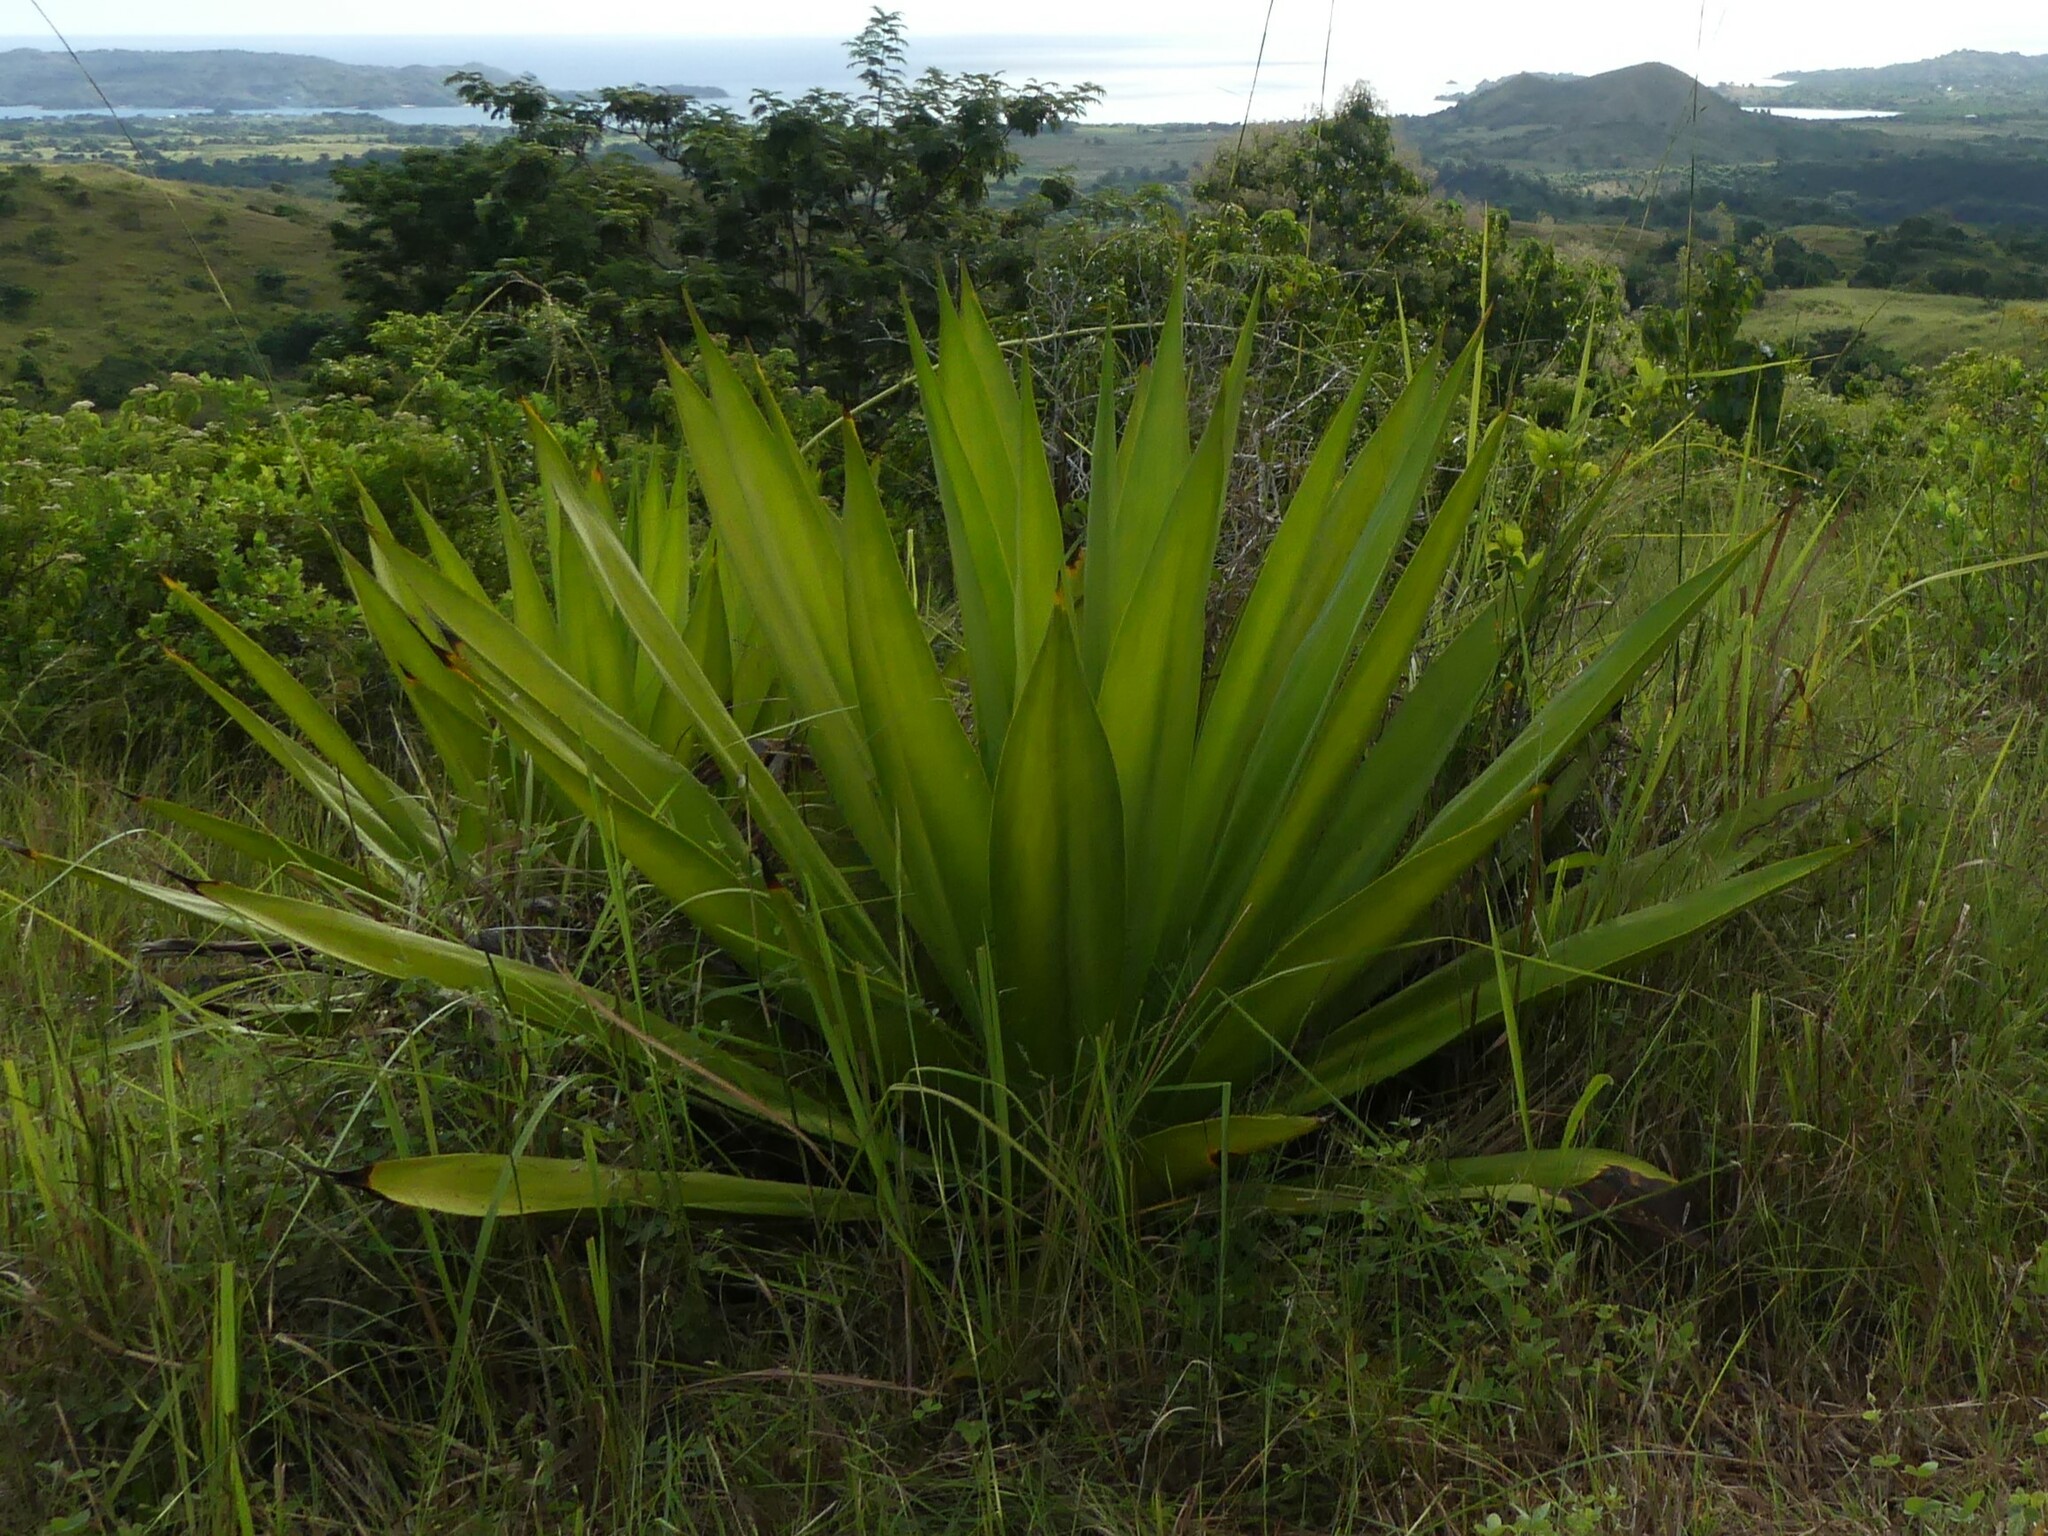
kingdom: Plantae
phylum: Tracheophyta
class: Liliopsida
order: Asparagales
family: Asparagaceae
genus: Furcraea
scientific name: Furcraea foetida
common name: Mauritius hemp
